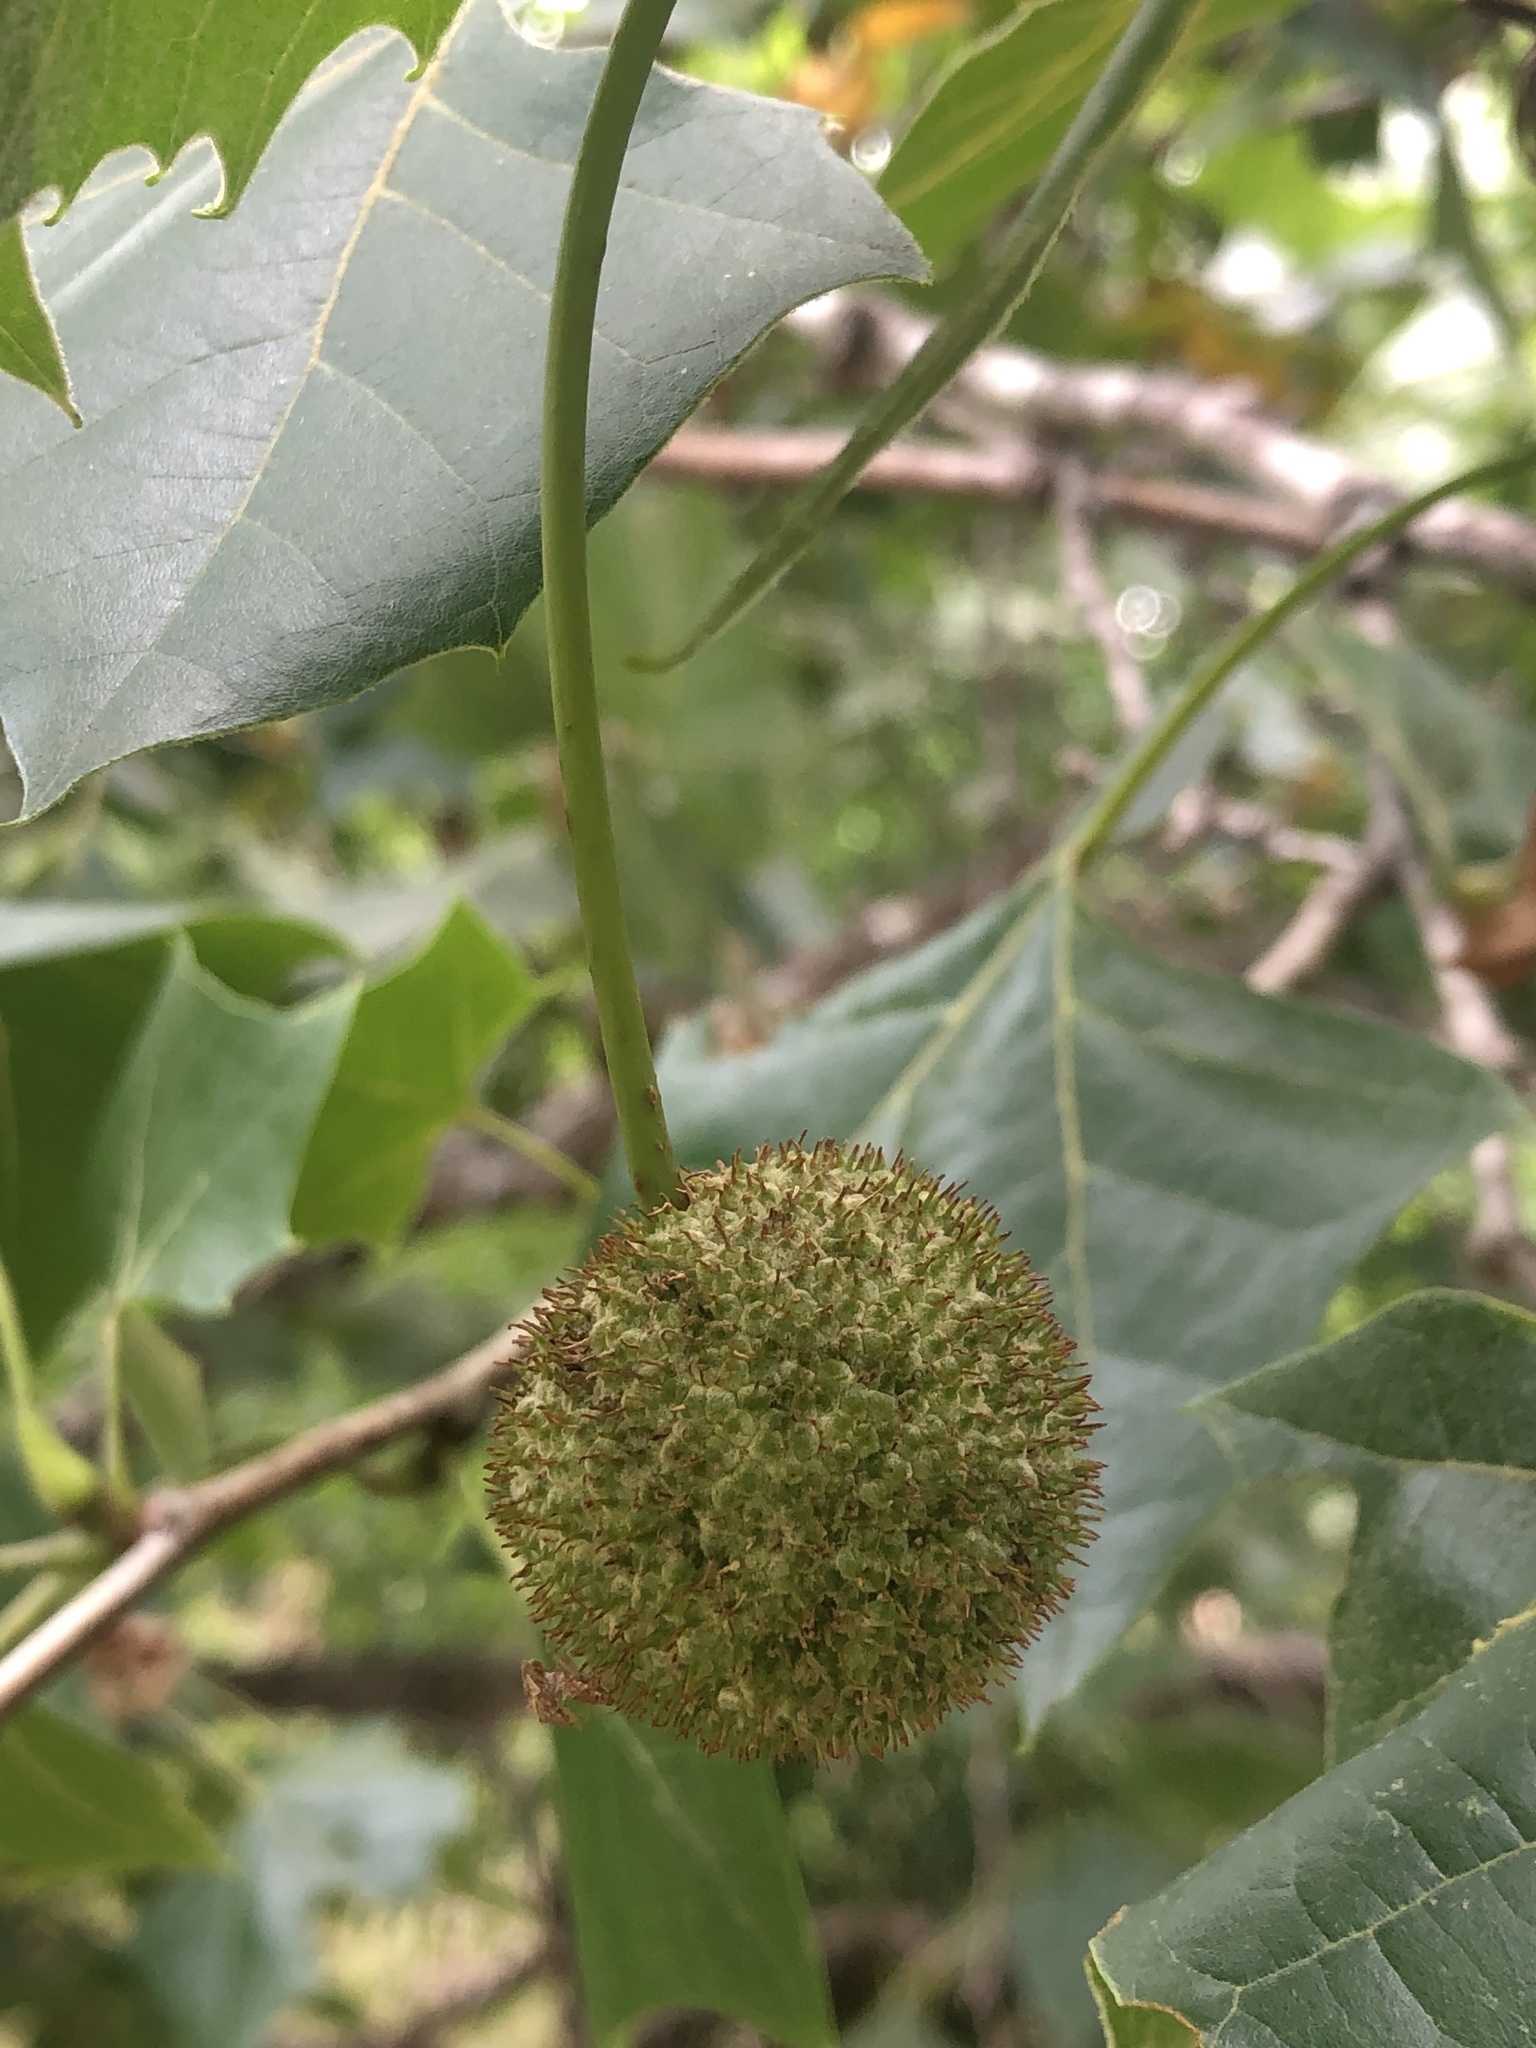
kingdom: Plantae
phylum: Tracheophyta
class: Magnoliopsida
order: Proteales
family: Platanaceae
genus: Platanus
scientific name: Platanus occidentalis
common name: American sycamore
